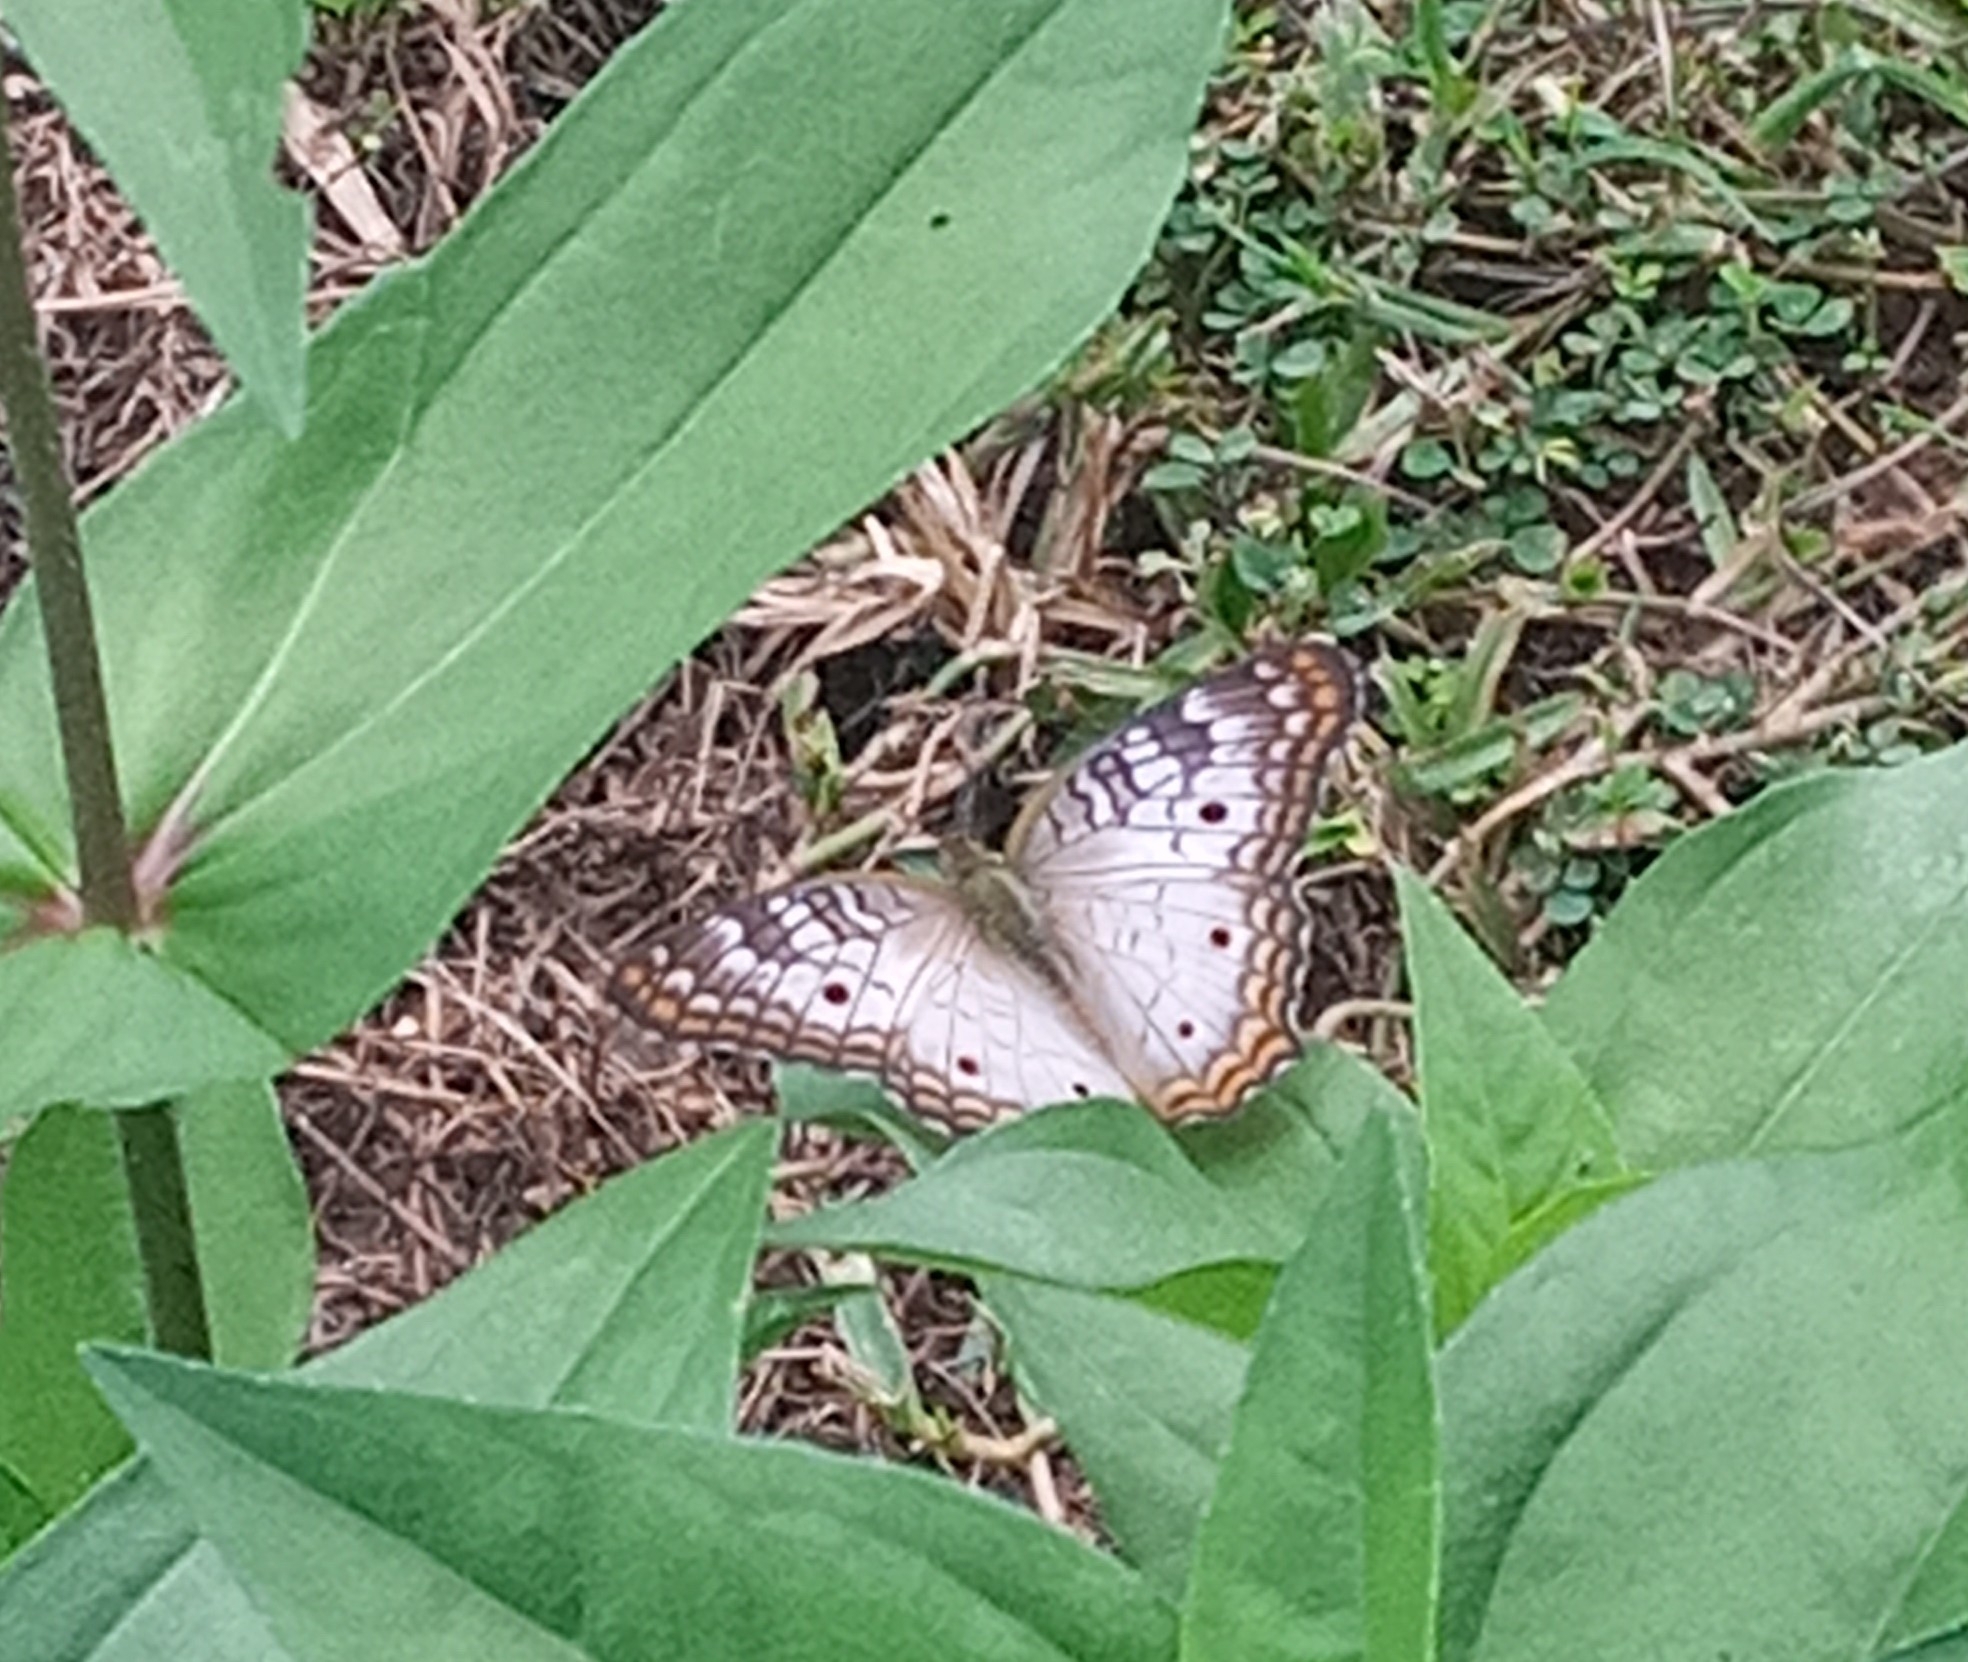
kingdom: Animalia
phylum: Arthropoda
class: Insecta
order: Lepidoptera
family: Nymphalidae
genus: Anartia
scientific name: Anartia jatrophae
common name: White peacock
